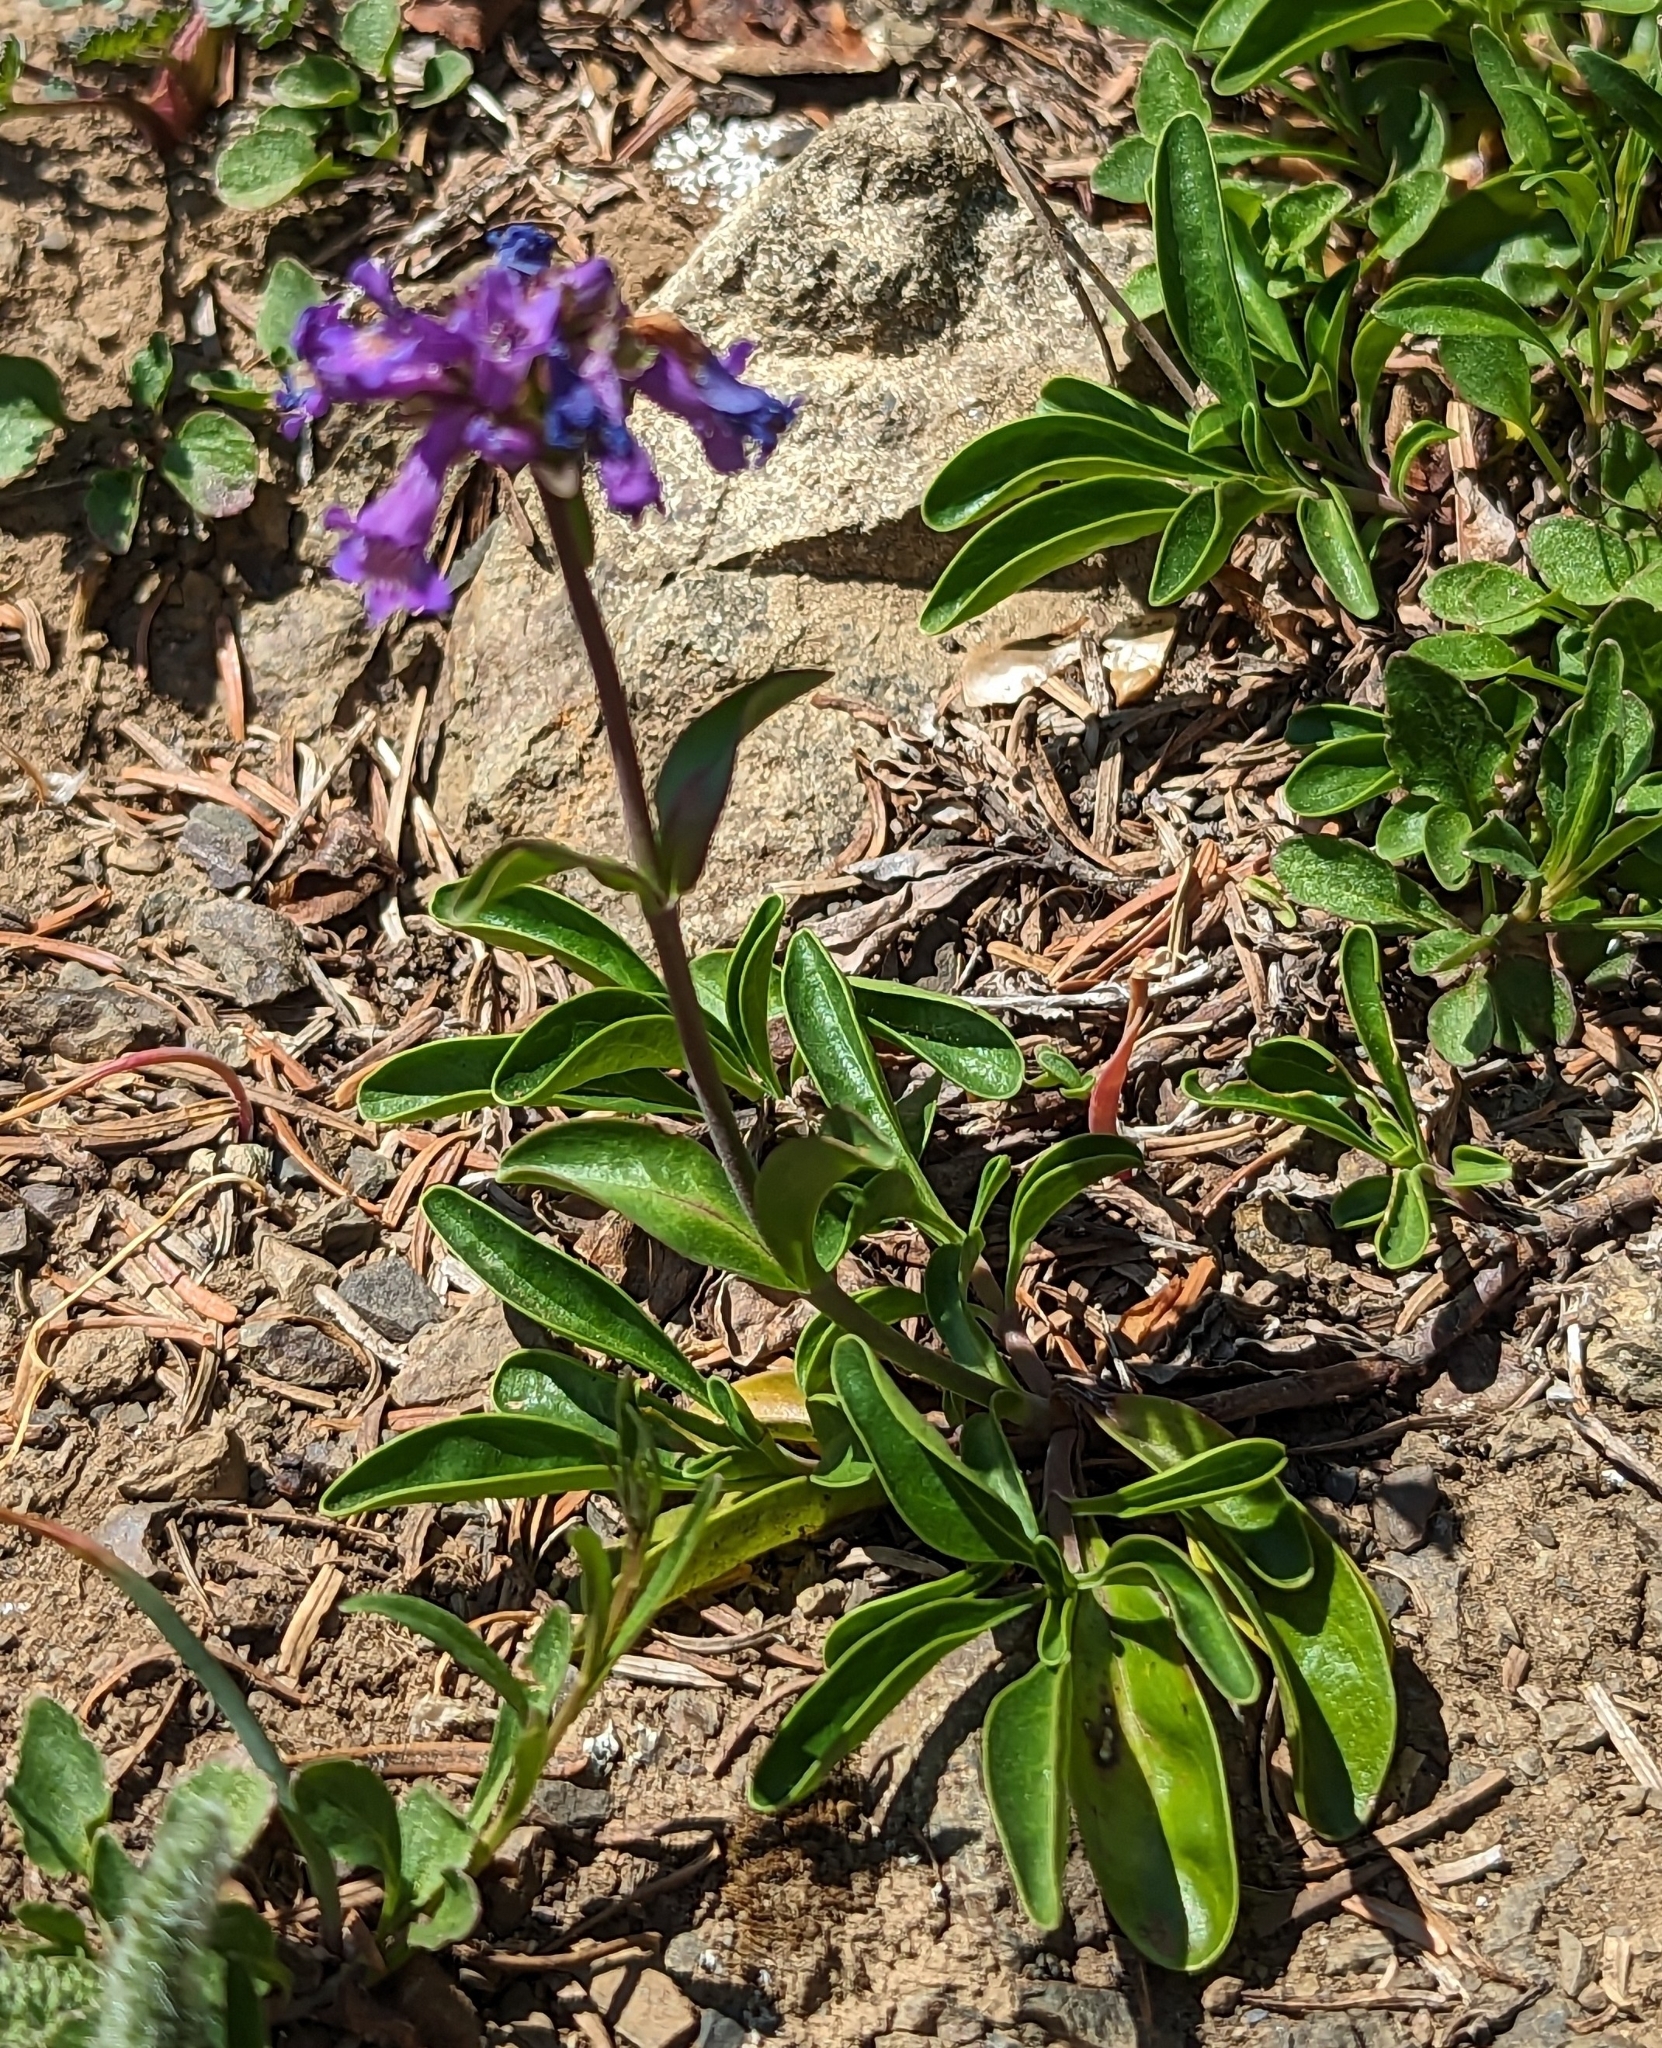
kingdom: Plantae
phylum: Tracheophyta
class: Magnoliopsida
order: Lamiales
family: Plantaginaceae
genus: Penstemon
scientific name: Penstemon procerus
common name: Small-flower penstemon
